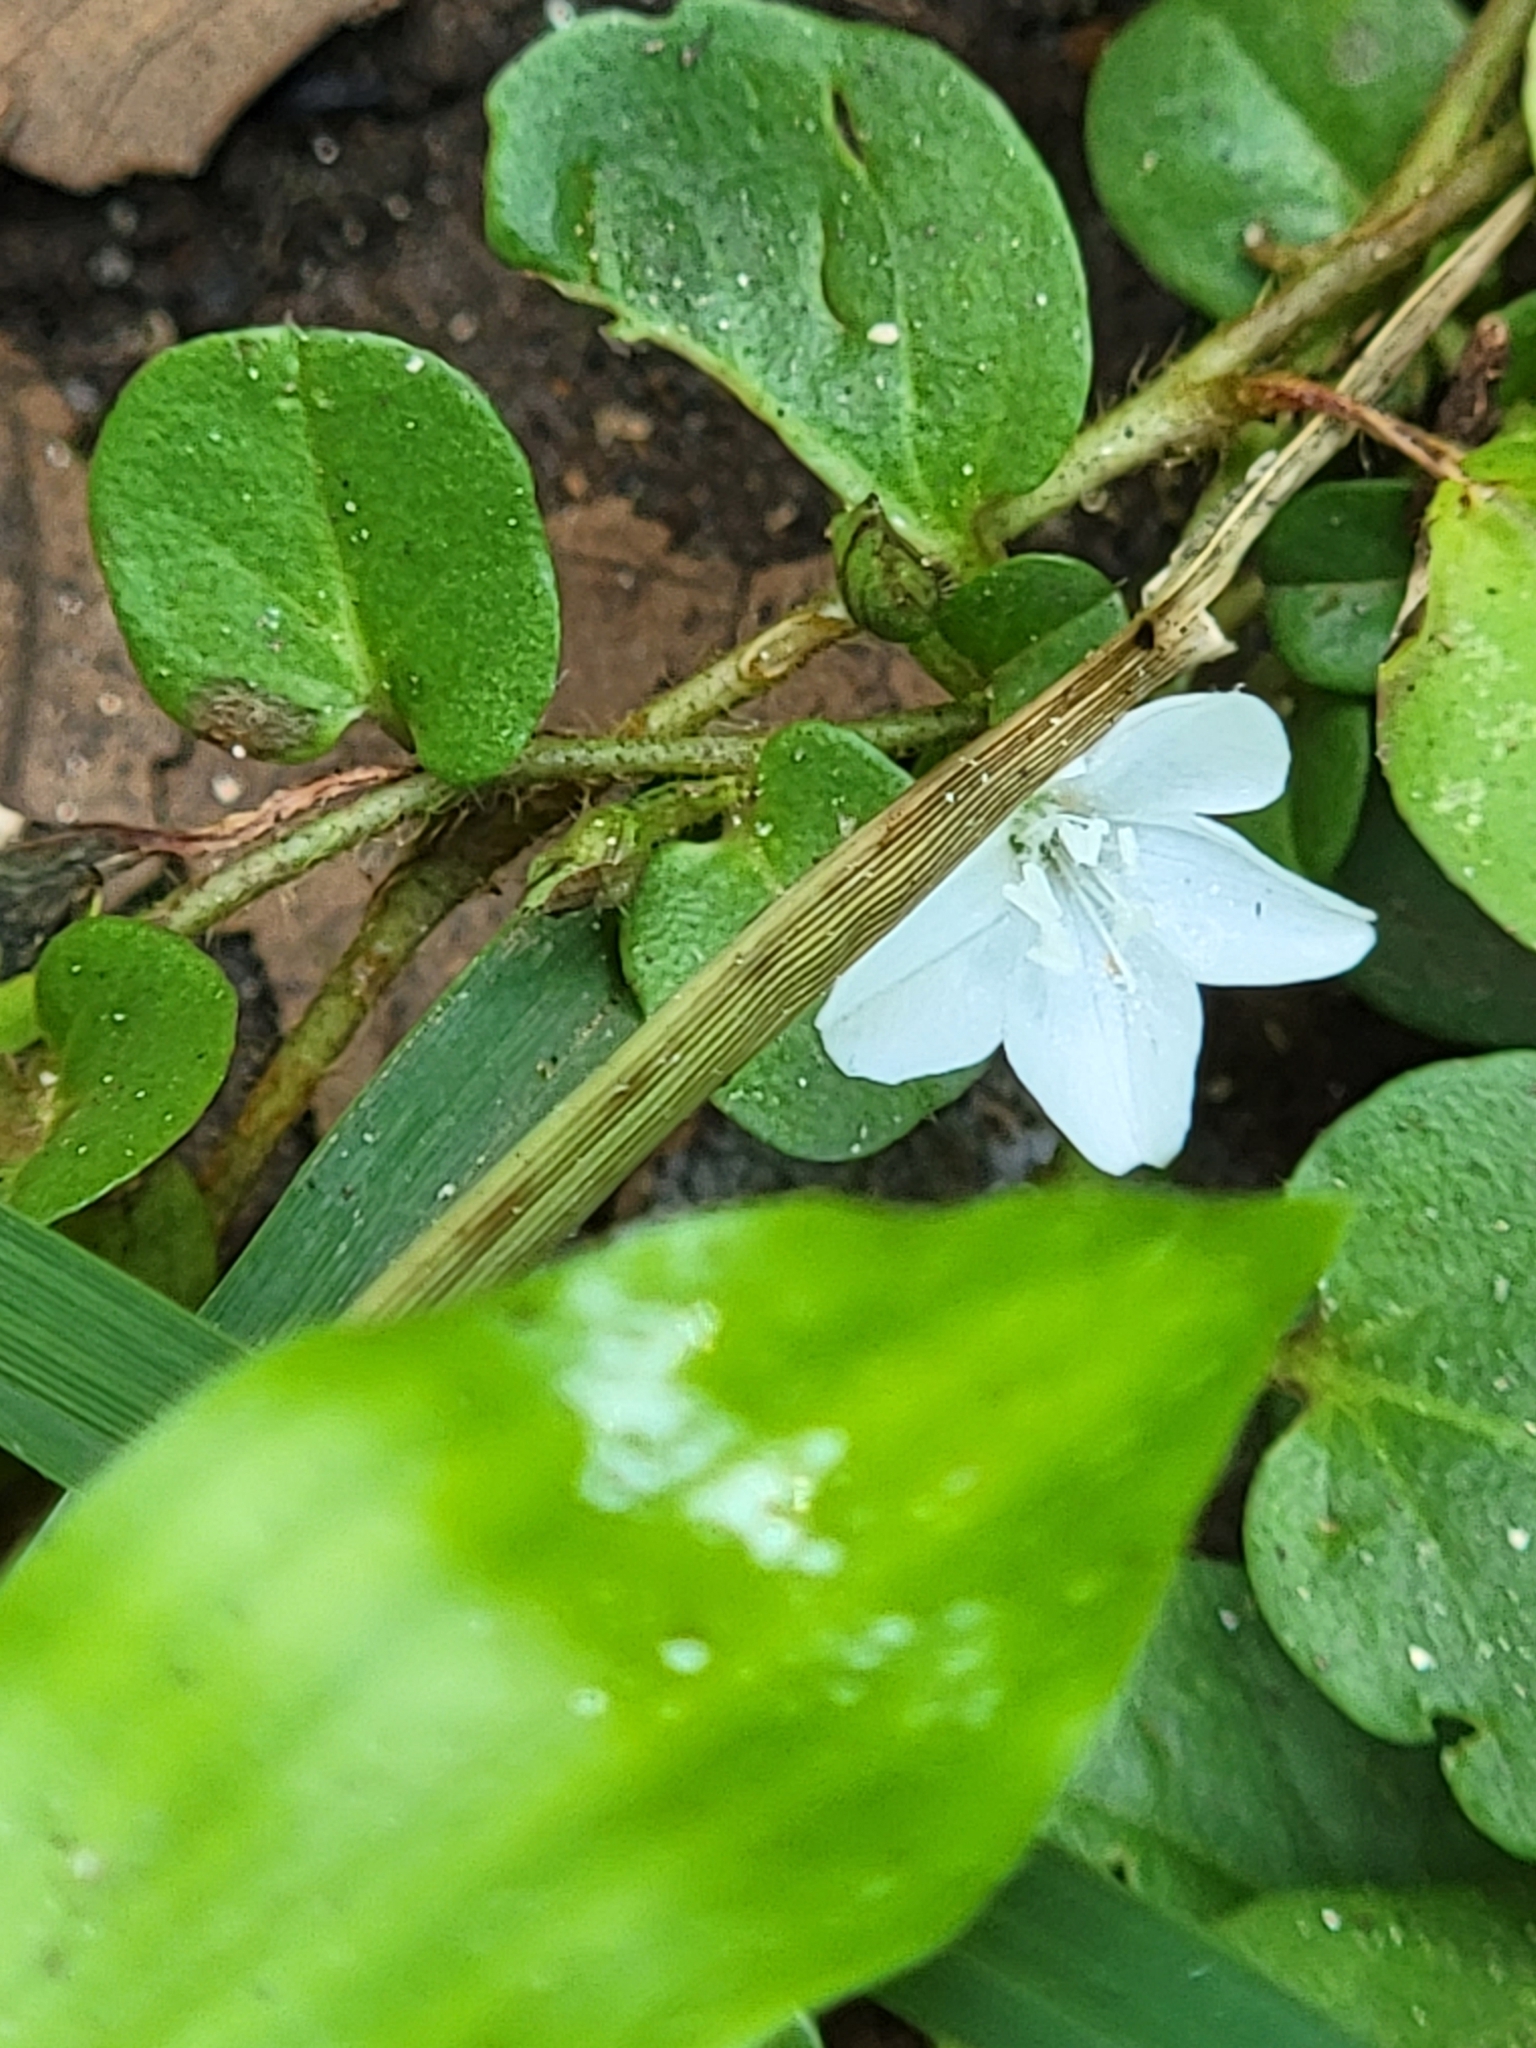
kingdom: Plantae
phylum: Tracheophyta
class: Magnoliopsida
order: Solanales
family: Convolvulaceae
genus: Evolvulus
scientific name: Evolvulus nummularius
